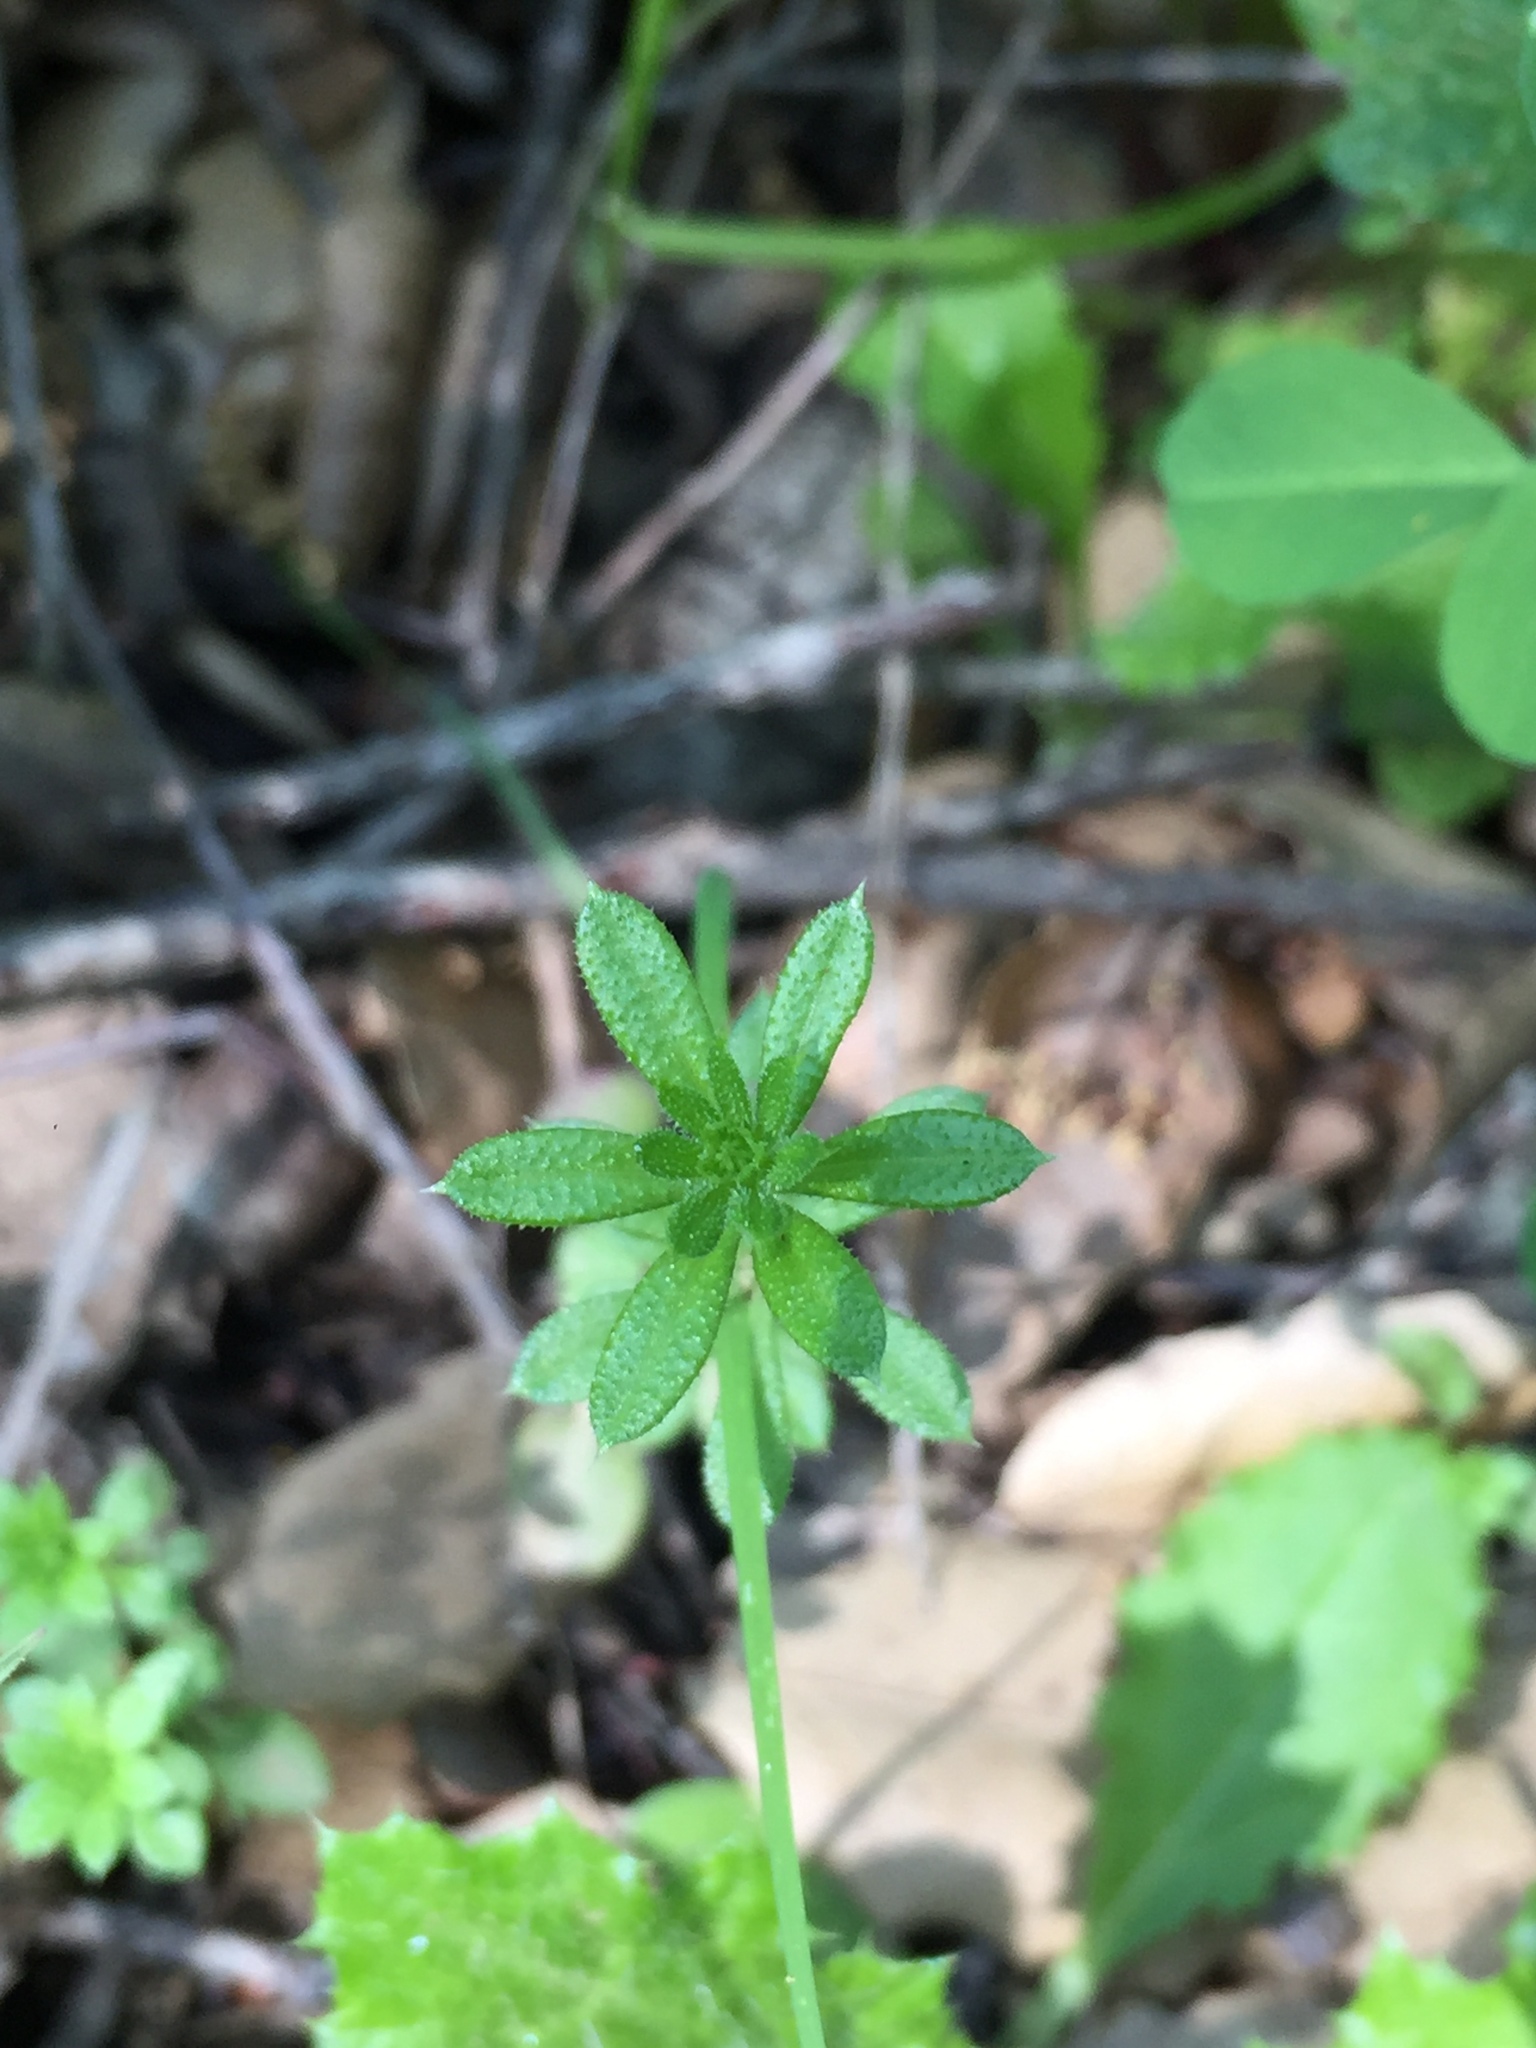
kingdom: Plantae
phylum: Tracheophyta
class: Magnoliopsida
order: Gentianales
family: Rubiaceae
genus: Galium
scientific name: Galium aparine
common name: Cleavers
